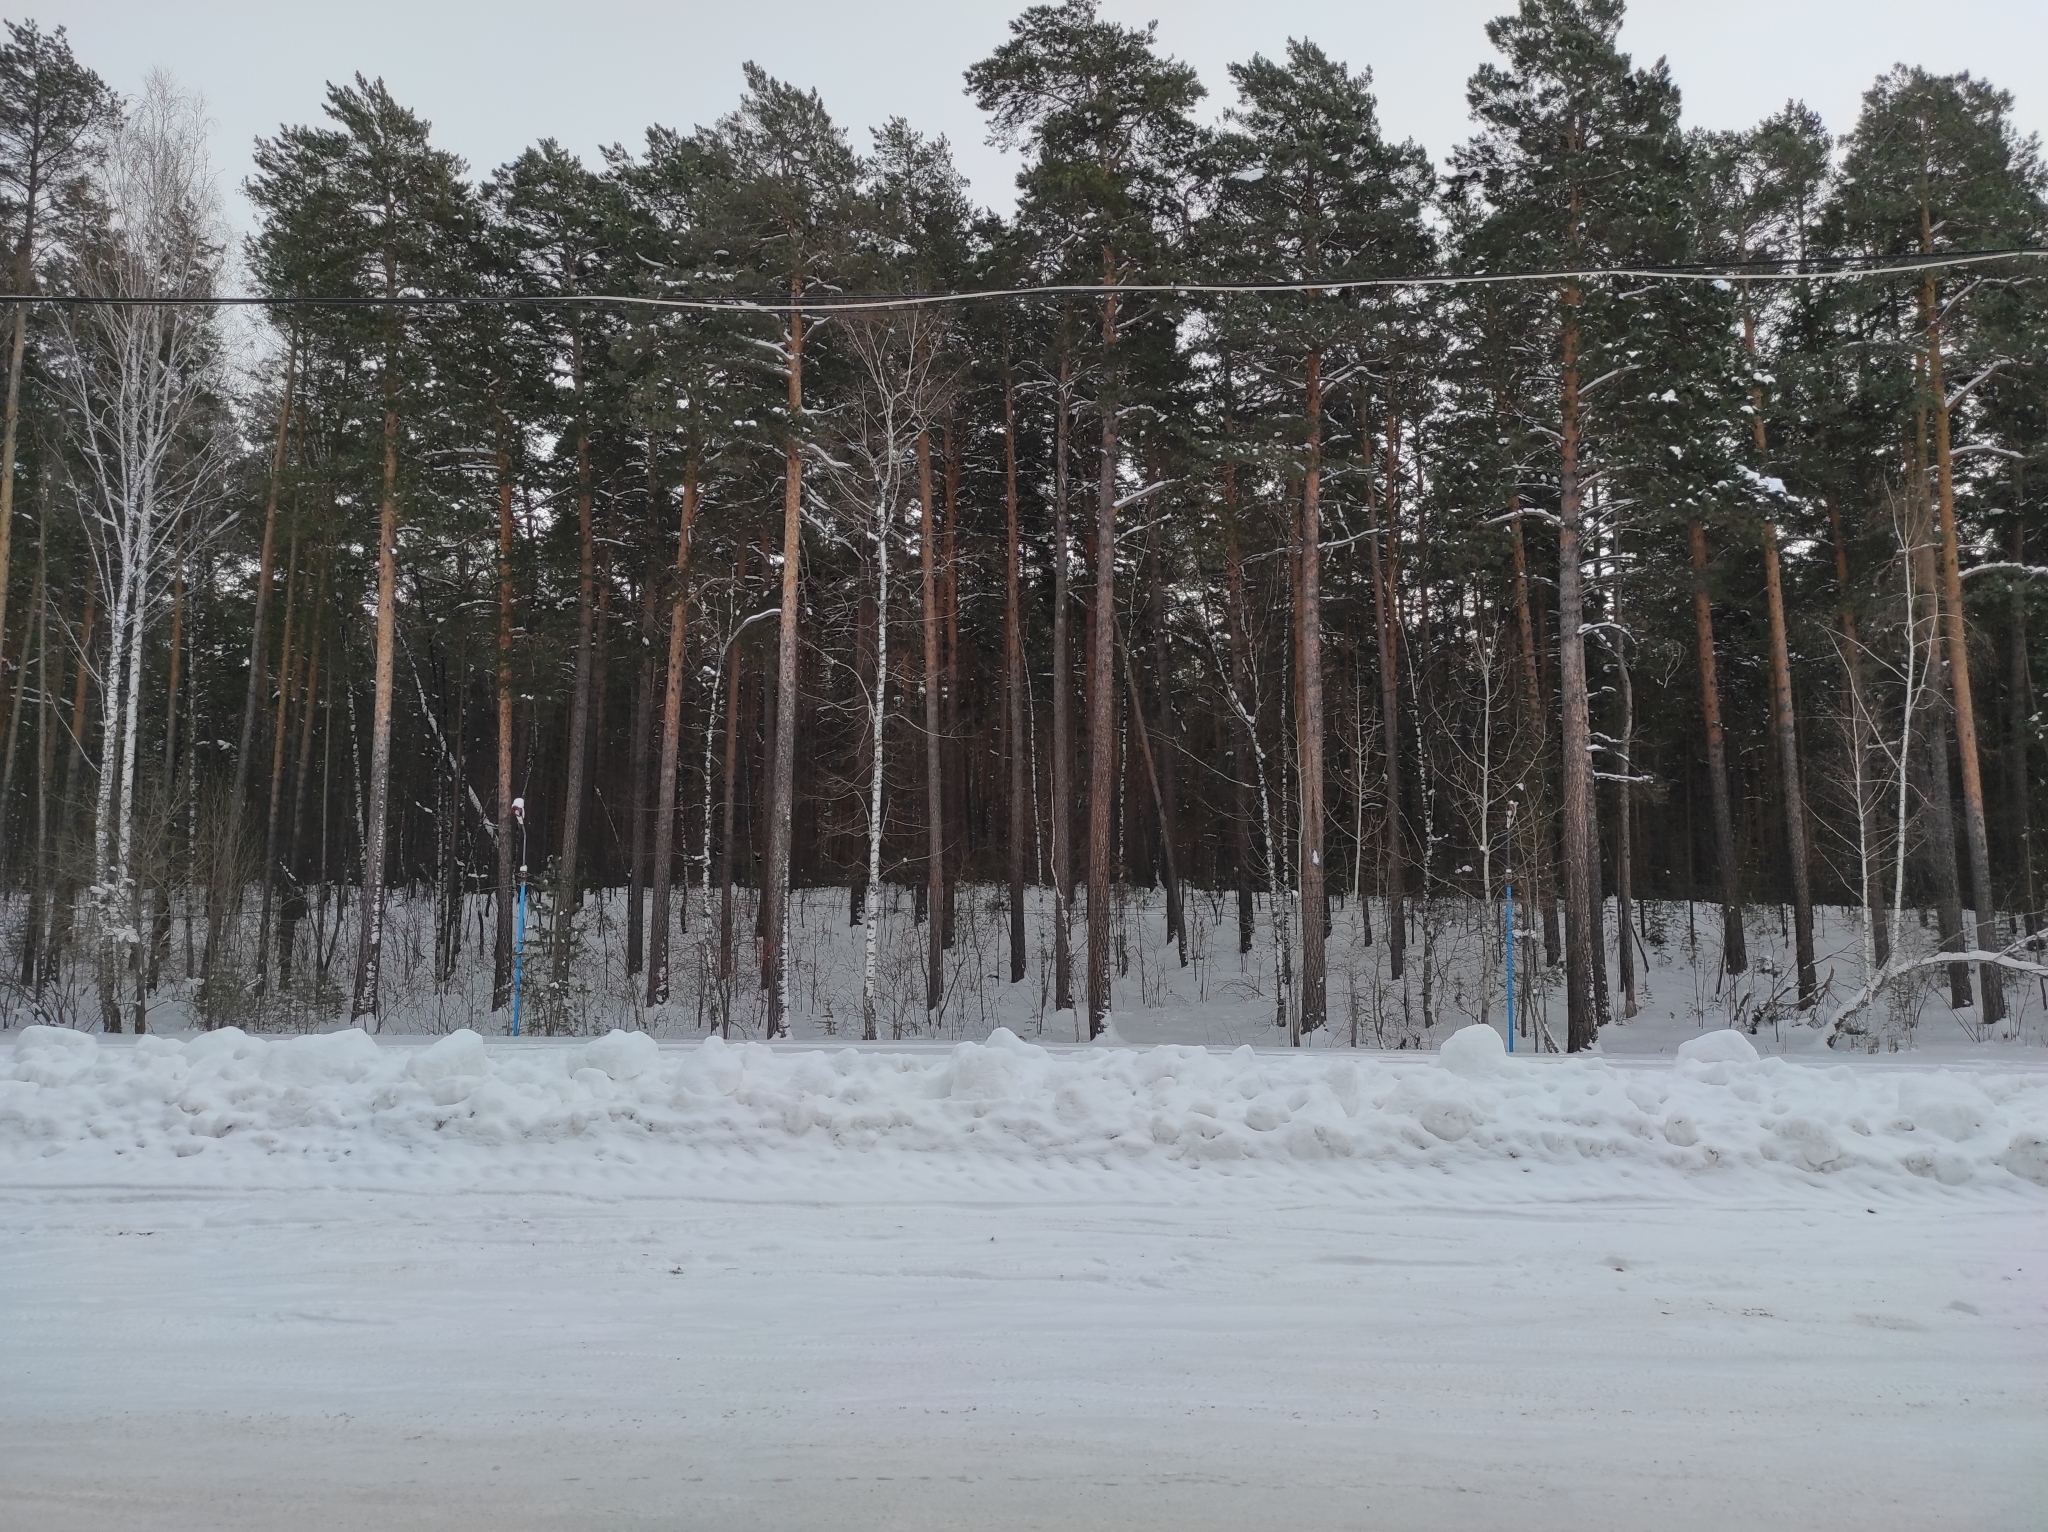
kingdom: Plantae
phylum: Tracheophyta
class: Pinopsida
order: Pinales
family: Pinaceae
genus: Pinus
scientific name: Pinus sylvestris
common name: Scots pine
